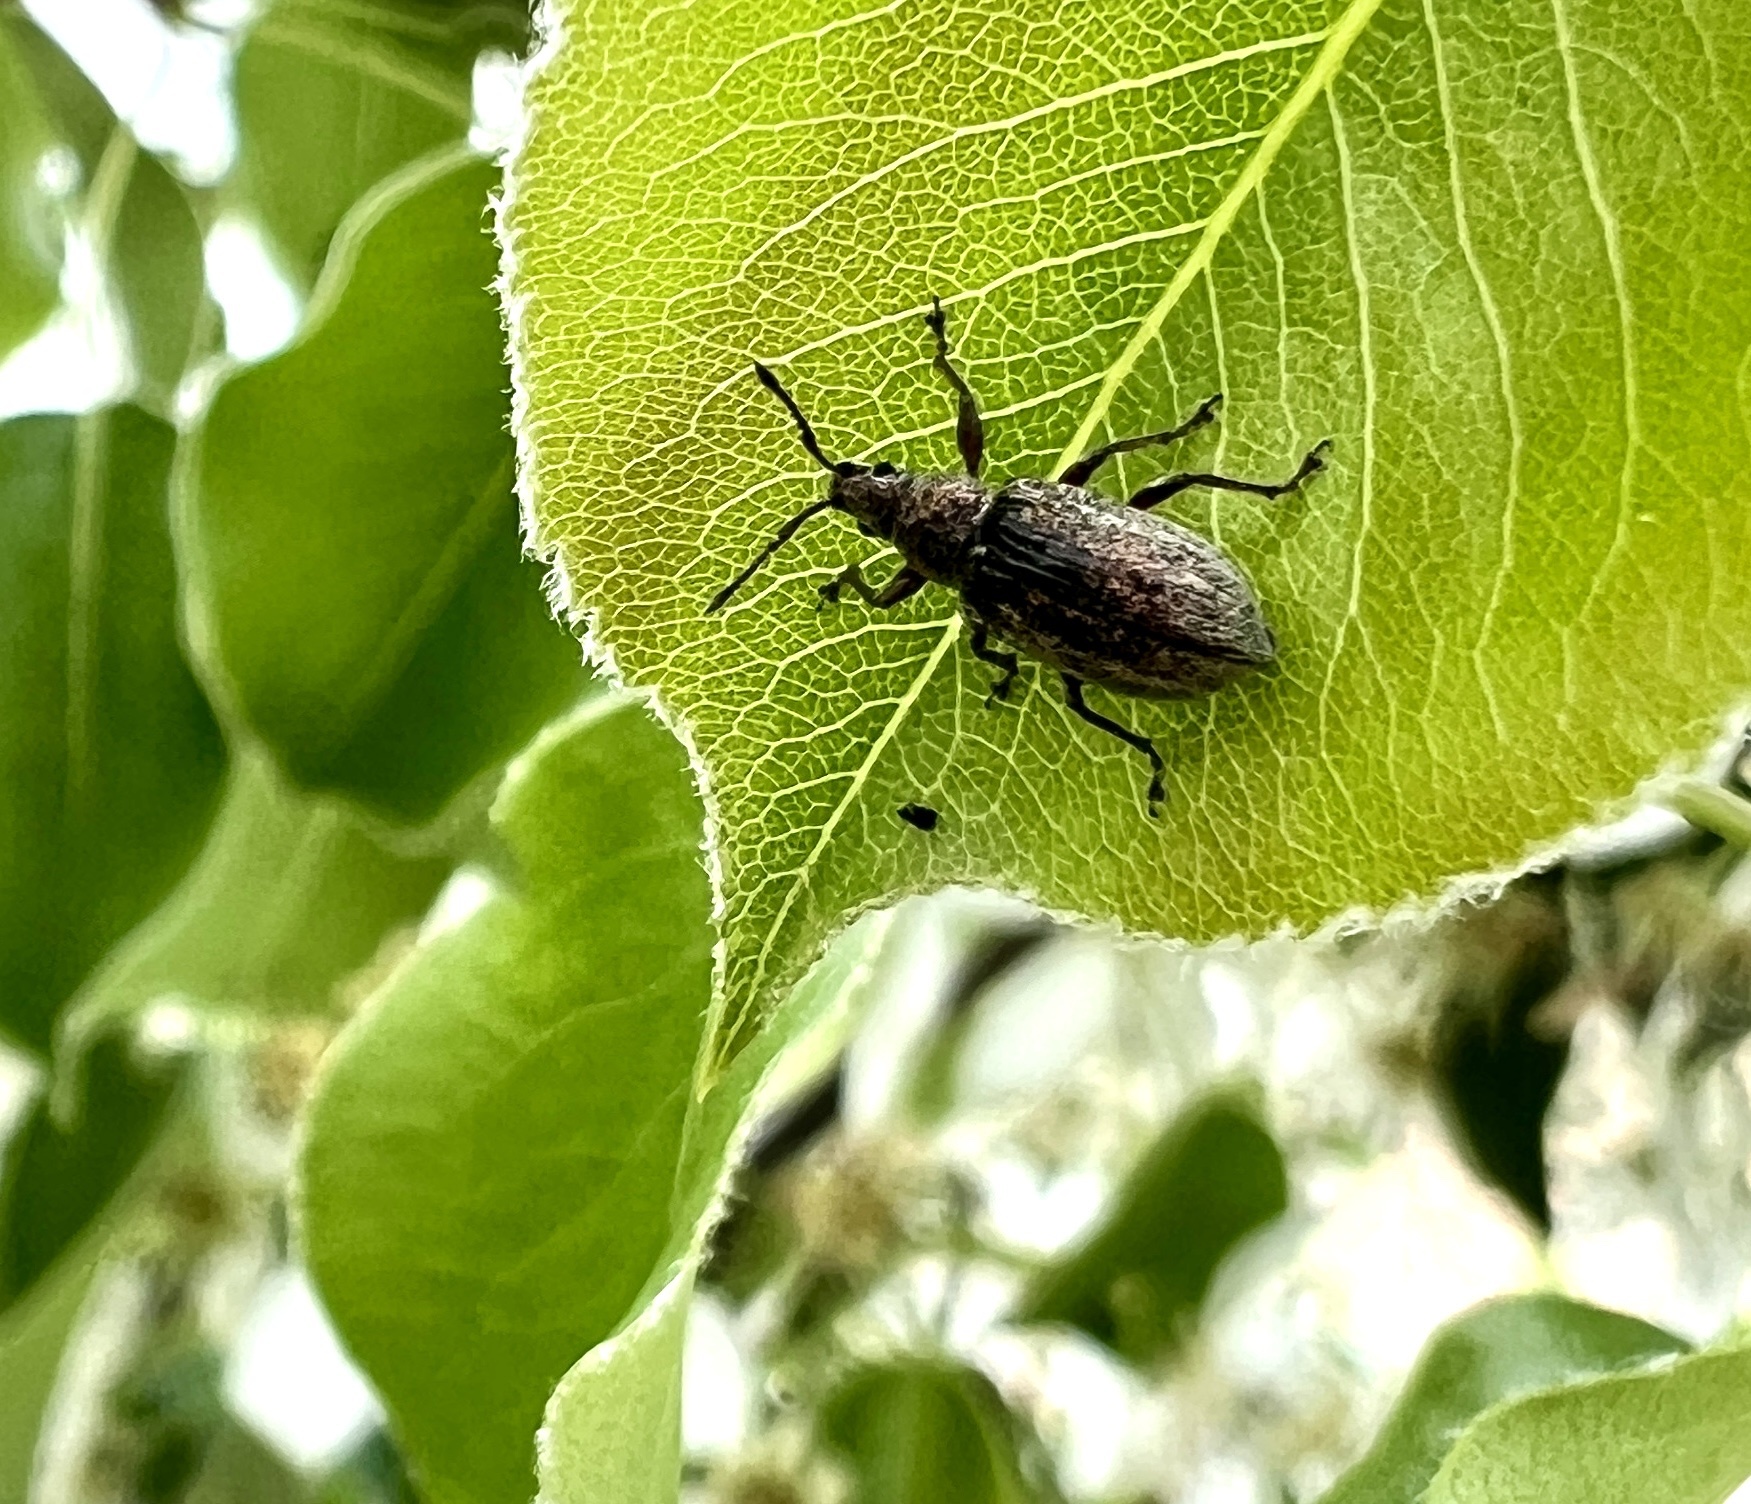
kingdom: Animalia
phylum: Arthropoda
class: Insecta
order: Coleoptera
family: Curculionidae
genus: Phyllobius
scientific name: Phyllobius pyri
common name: Common leaf weevil
